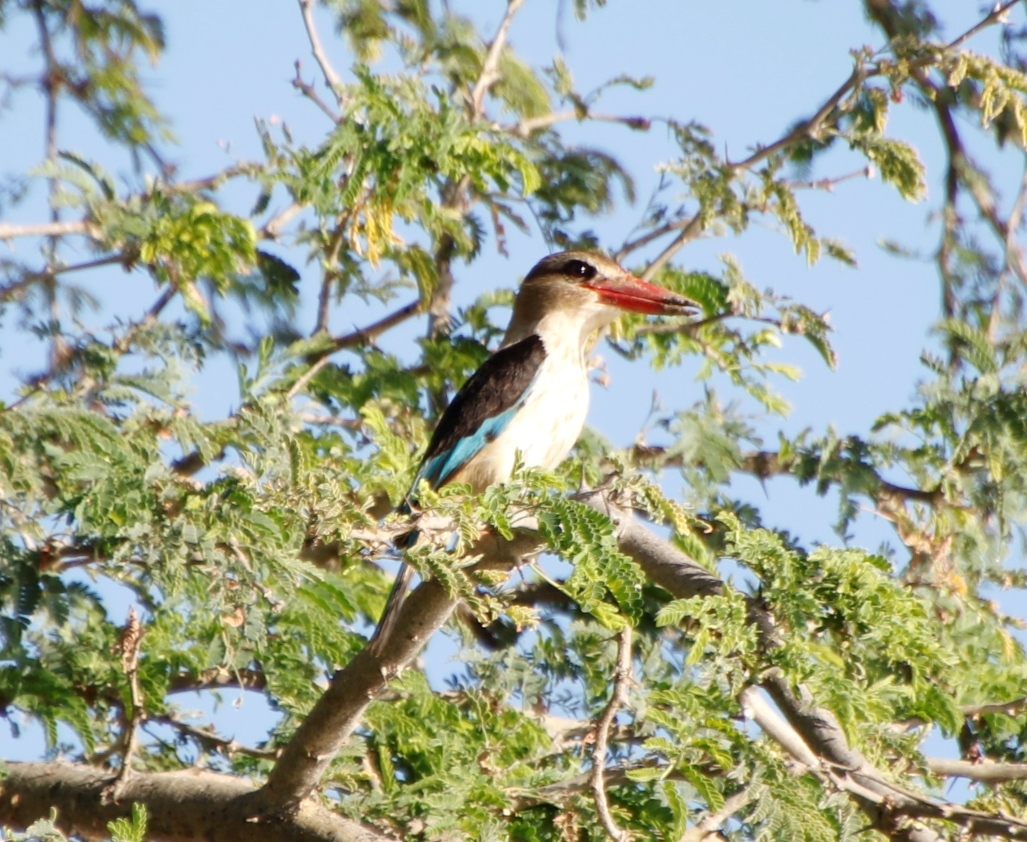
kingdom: Animalia
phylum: Chordata
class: Aves
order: Coraciiformes
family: Alcedinidae
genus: Halcyon
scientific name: Halcyon albiventris
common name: Brown-hooded kingfisher
